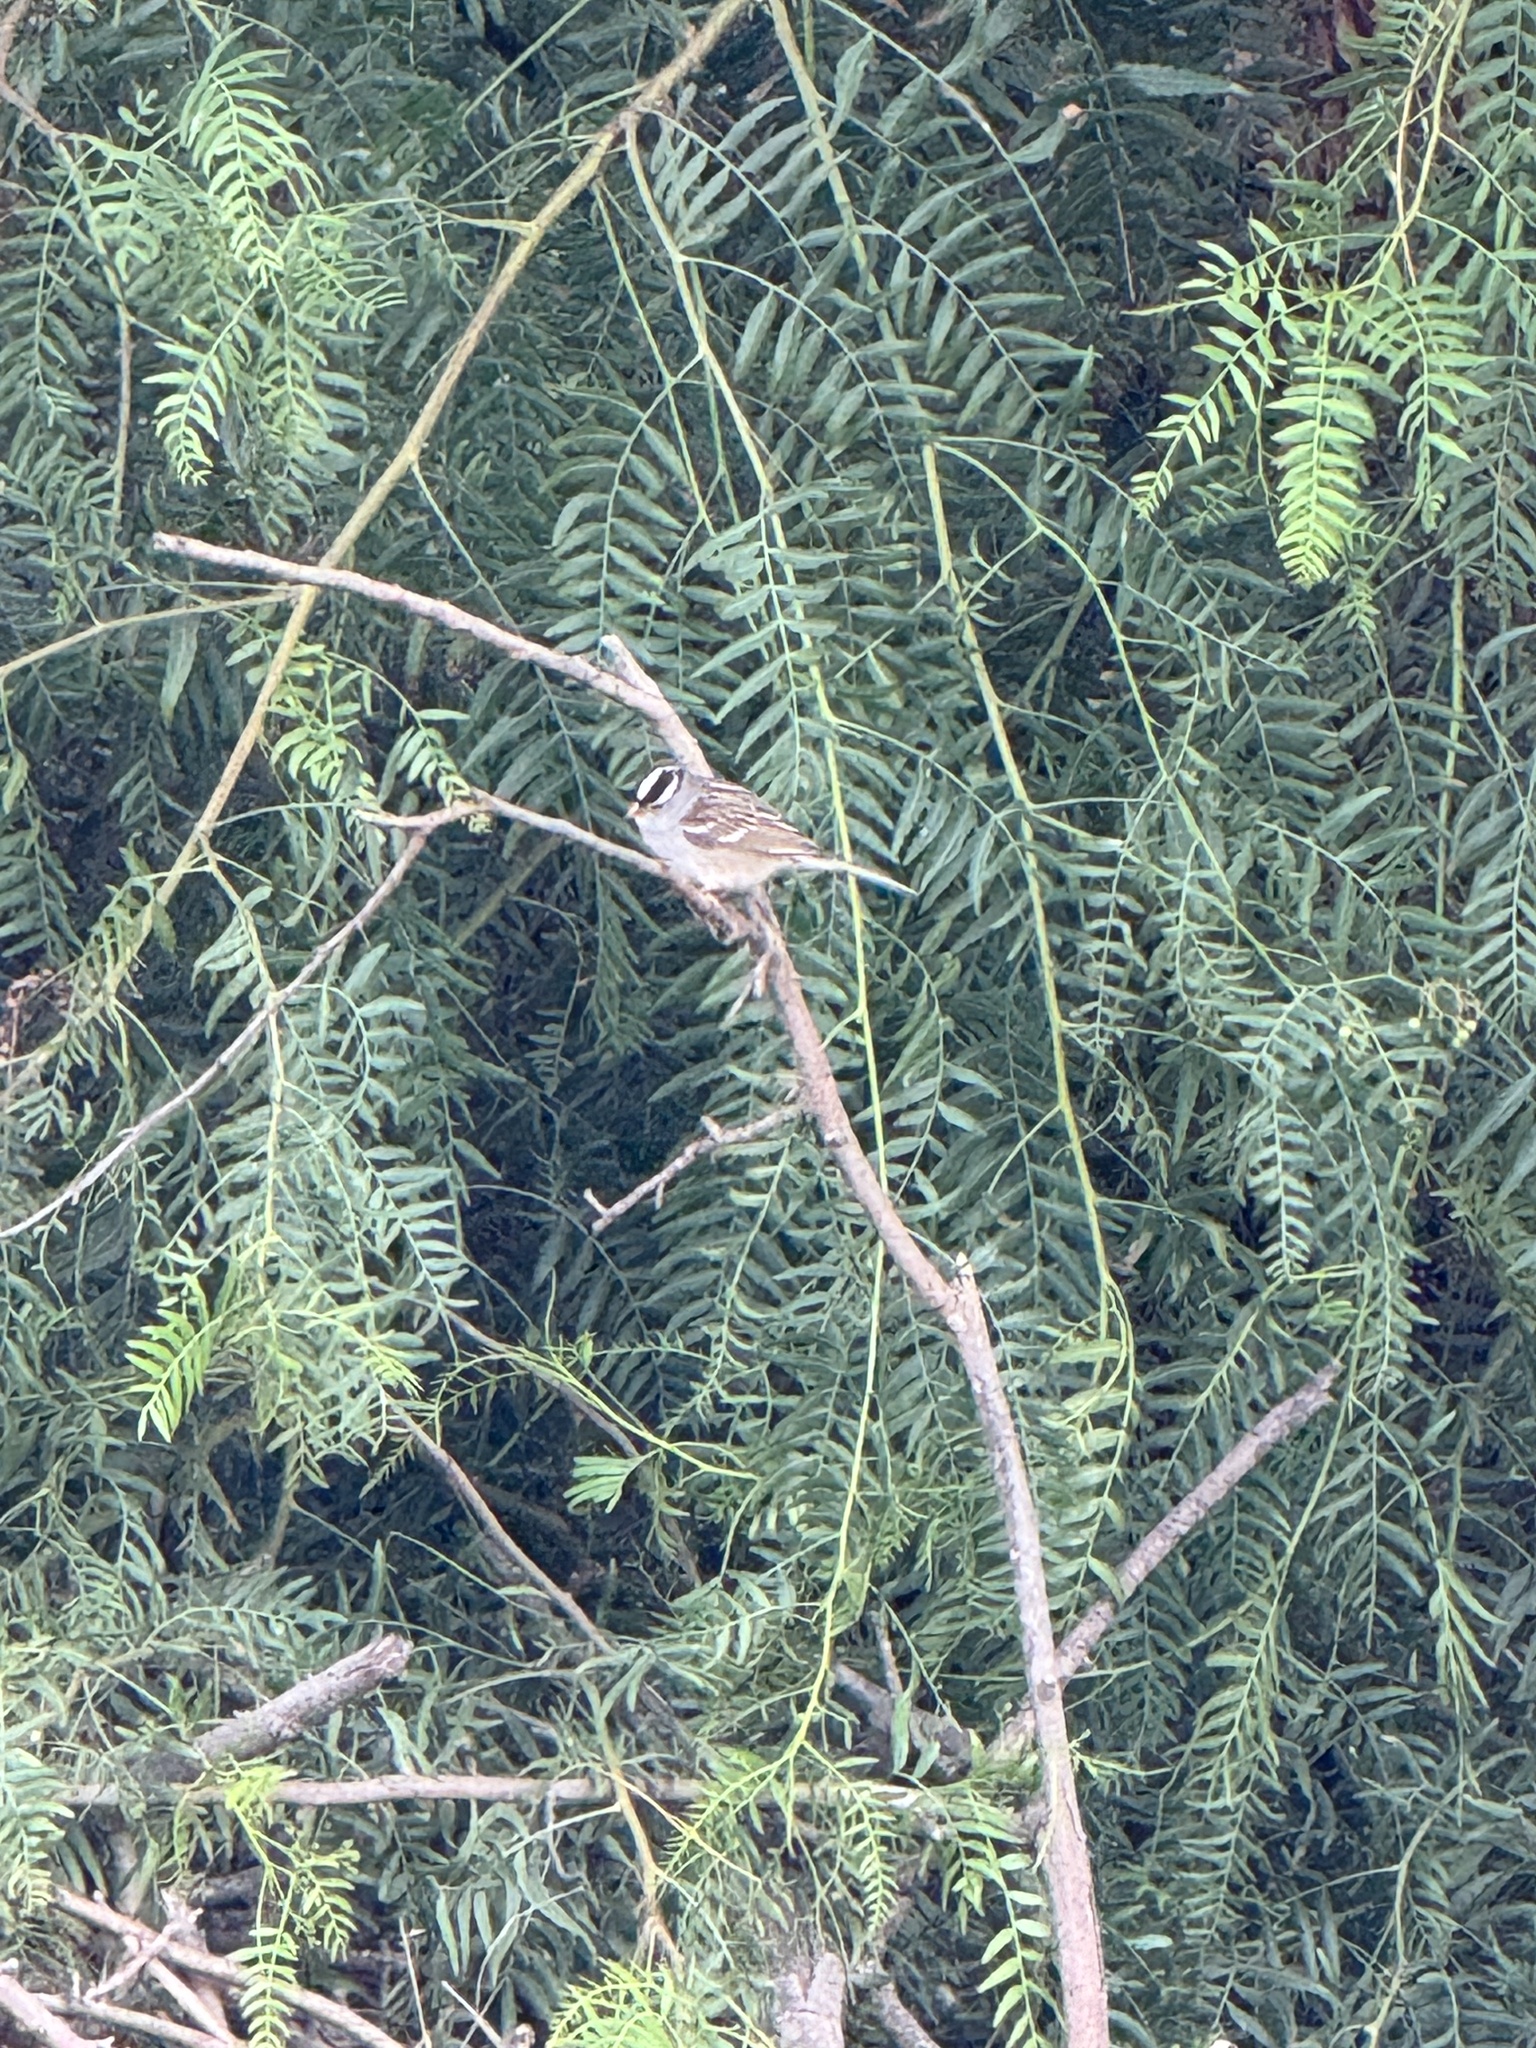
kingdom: Animalia
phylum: Chordata
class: Aves
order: Passeriformes
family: Passerellidae
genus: Zonotrichia
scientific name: Zonotrichia leucophrys
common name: White-crowned sparrow
